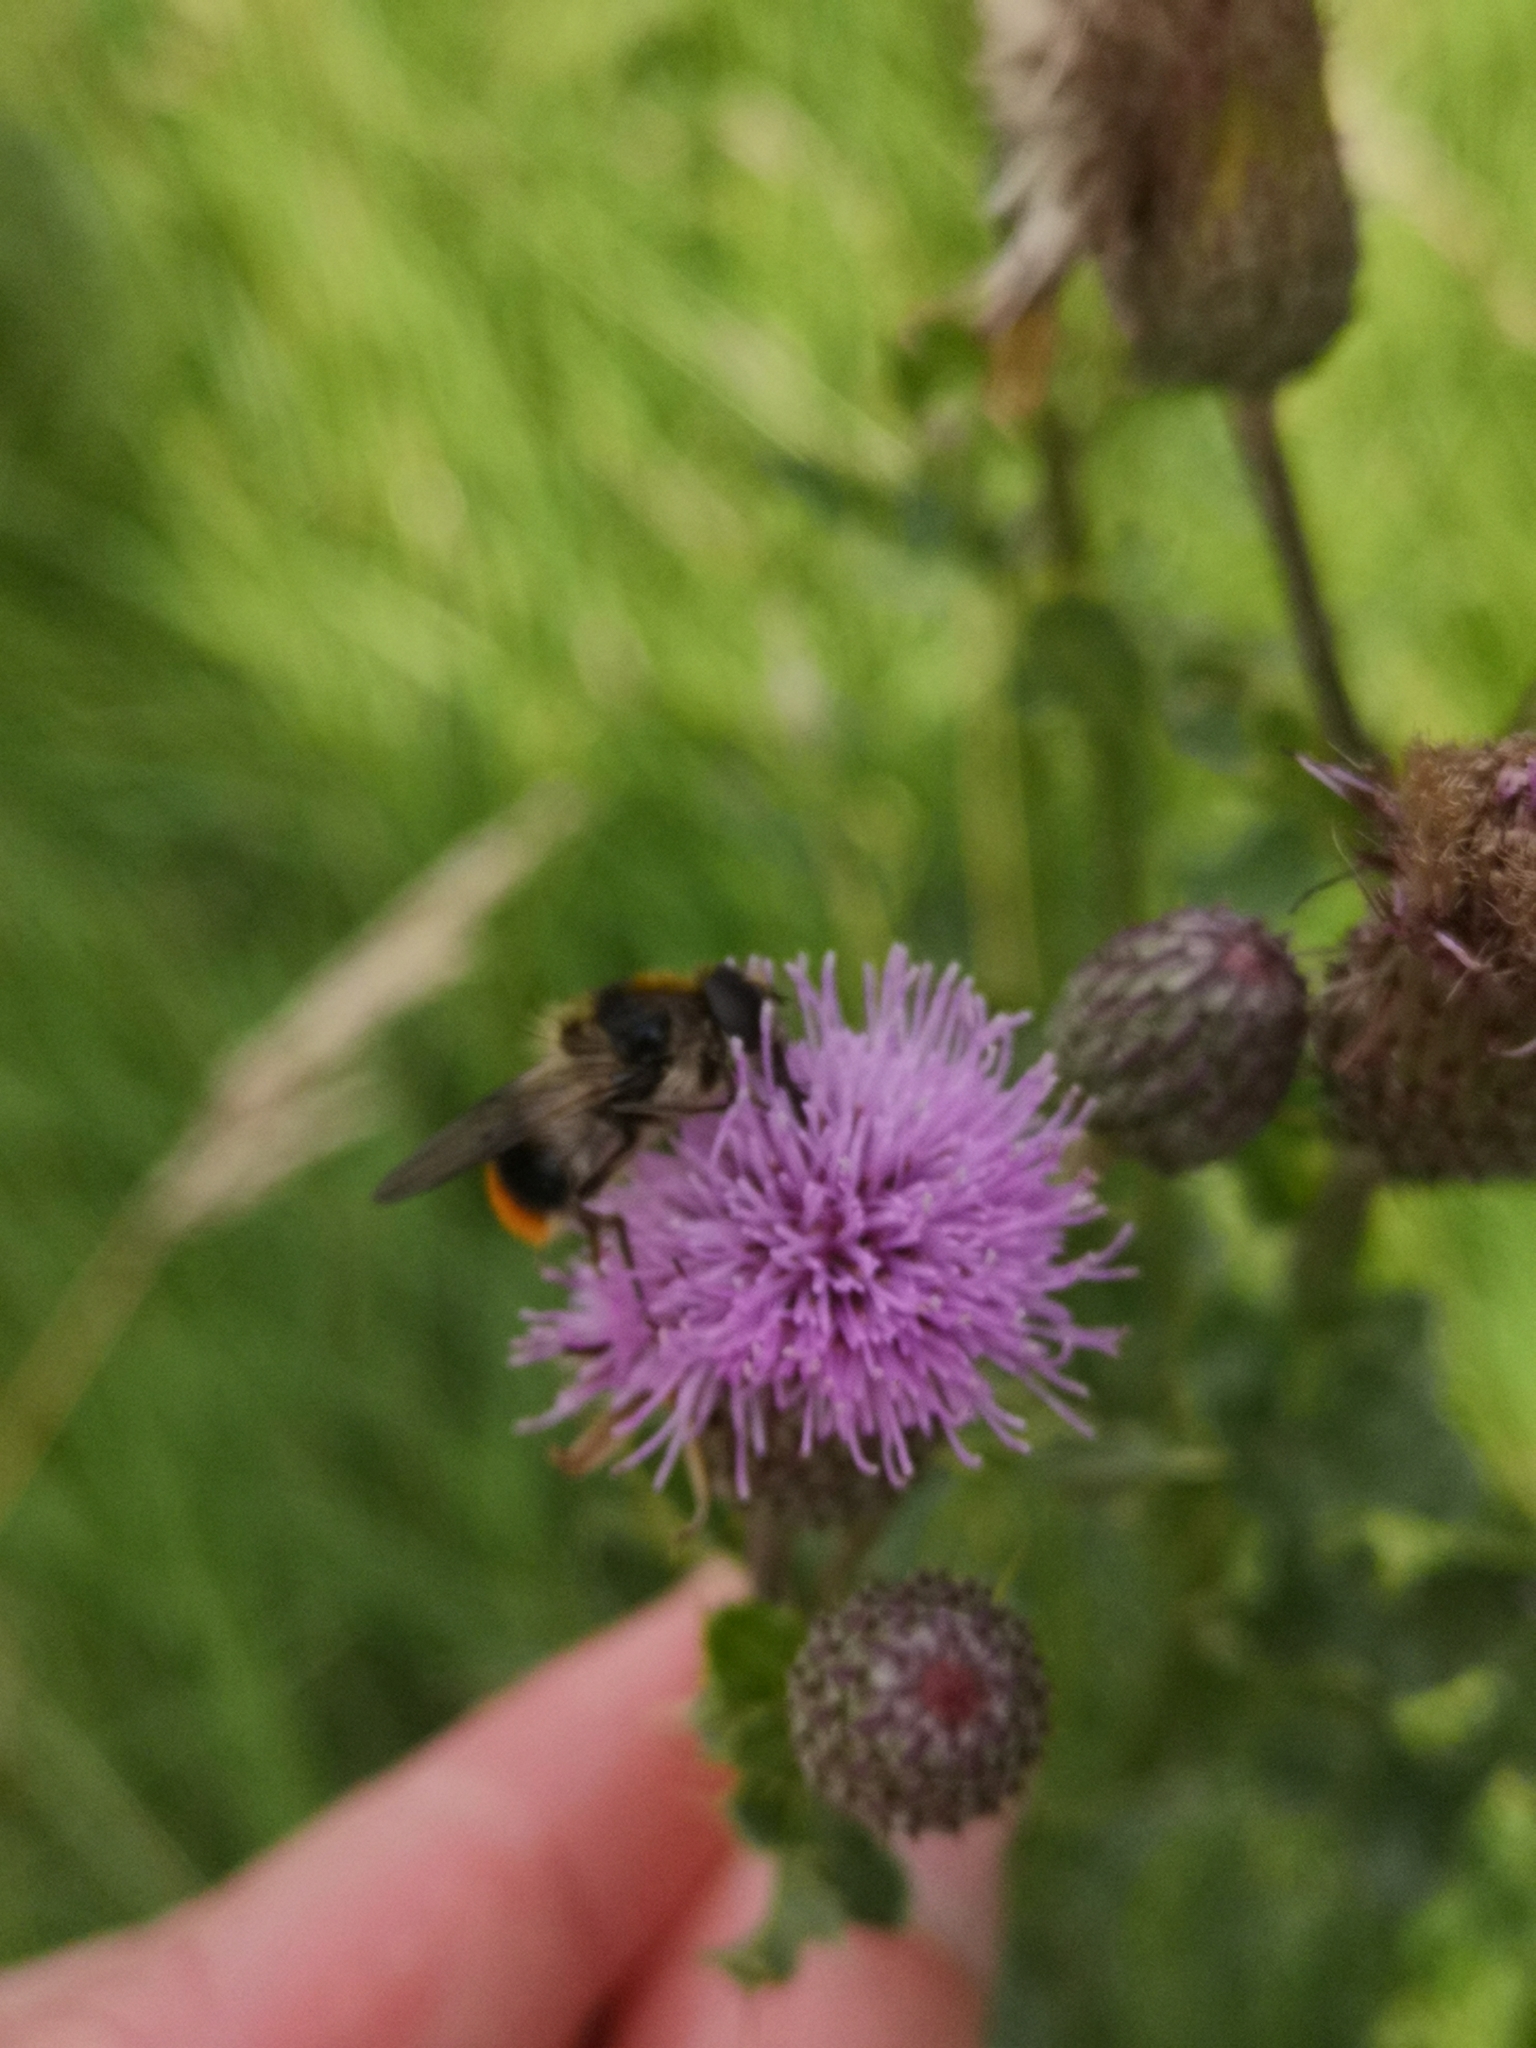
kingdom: Animalia
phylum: Arthropoda
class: Insecta
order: Diptera
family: Syrphidae
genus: Cheilosia
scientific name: Cheilosia illustrata
